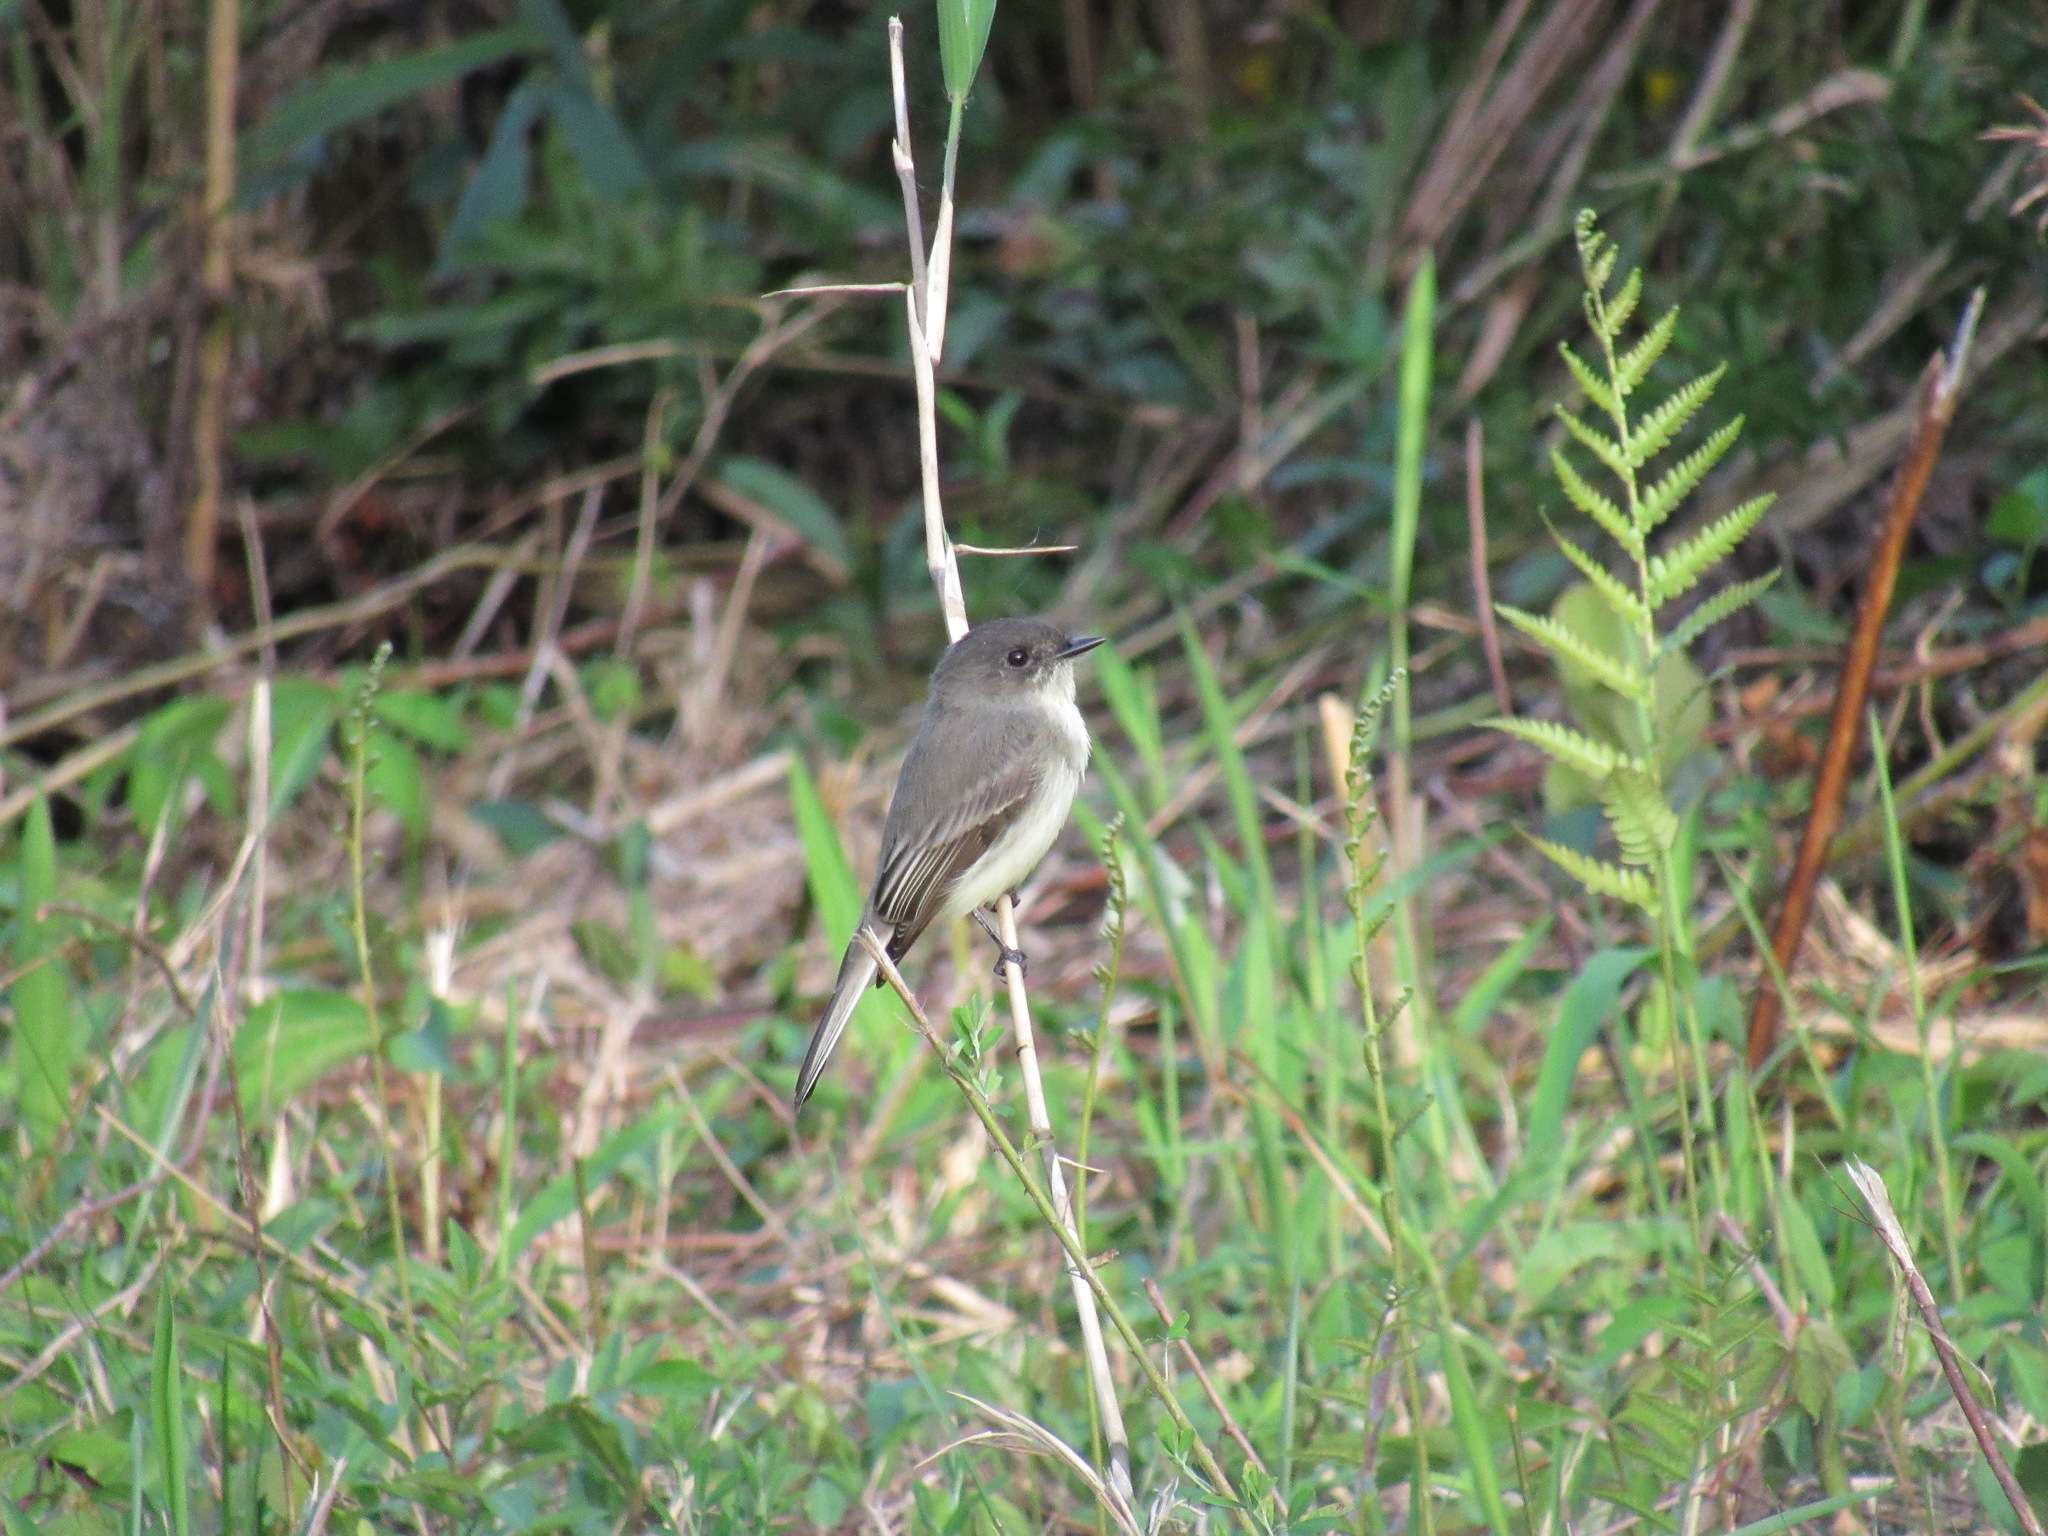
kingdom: Animalia
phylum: Chordata
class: Aves
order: Passeriformes
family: Tyrannidae
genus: Sayornis
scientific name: Sayornis phoebe
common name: Eastern phoebe
